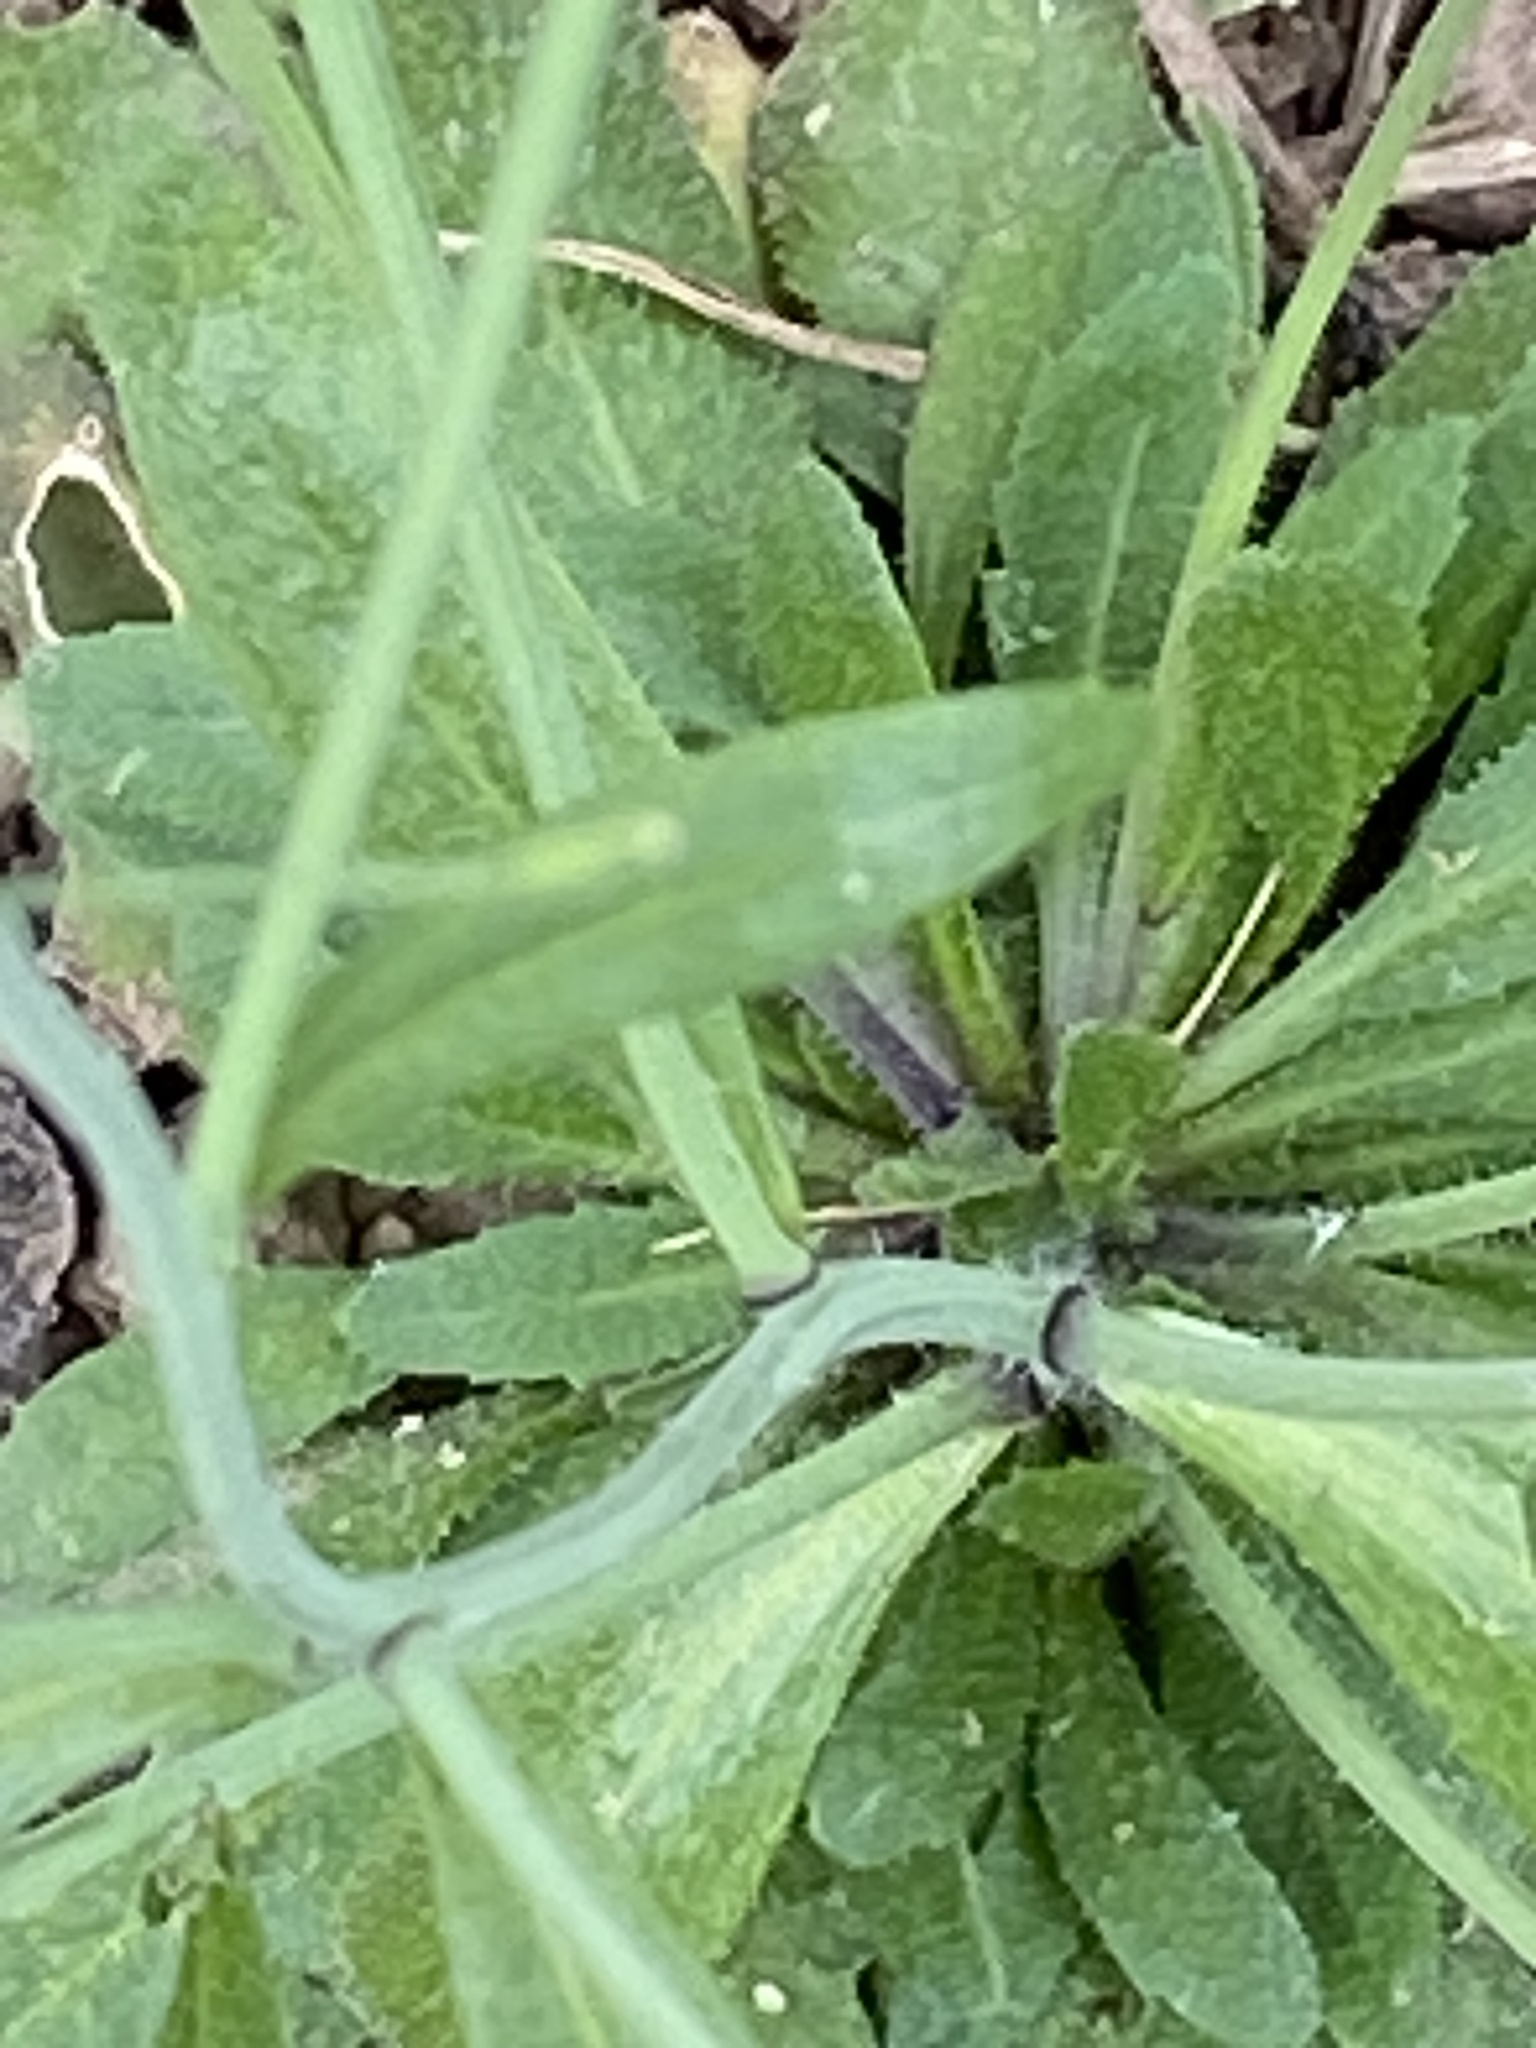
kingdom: Plantae
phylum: Tracheophyta
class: Magnoliopsida
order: Brassicales
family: Brassicaceae
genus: Arabidopsis
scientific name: Arabidopsis thaliana
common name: Thale cress
